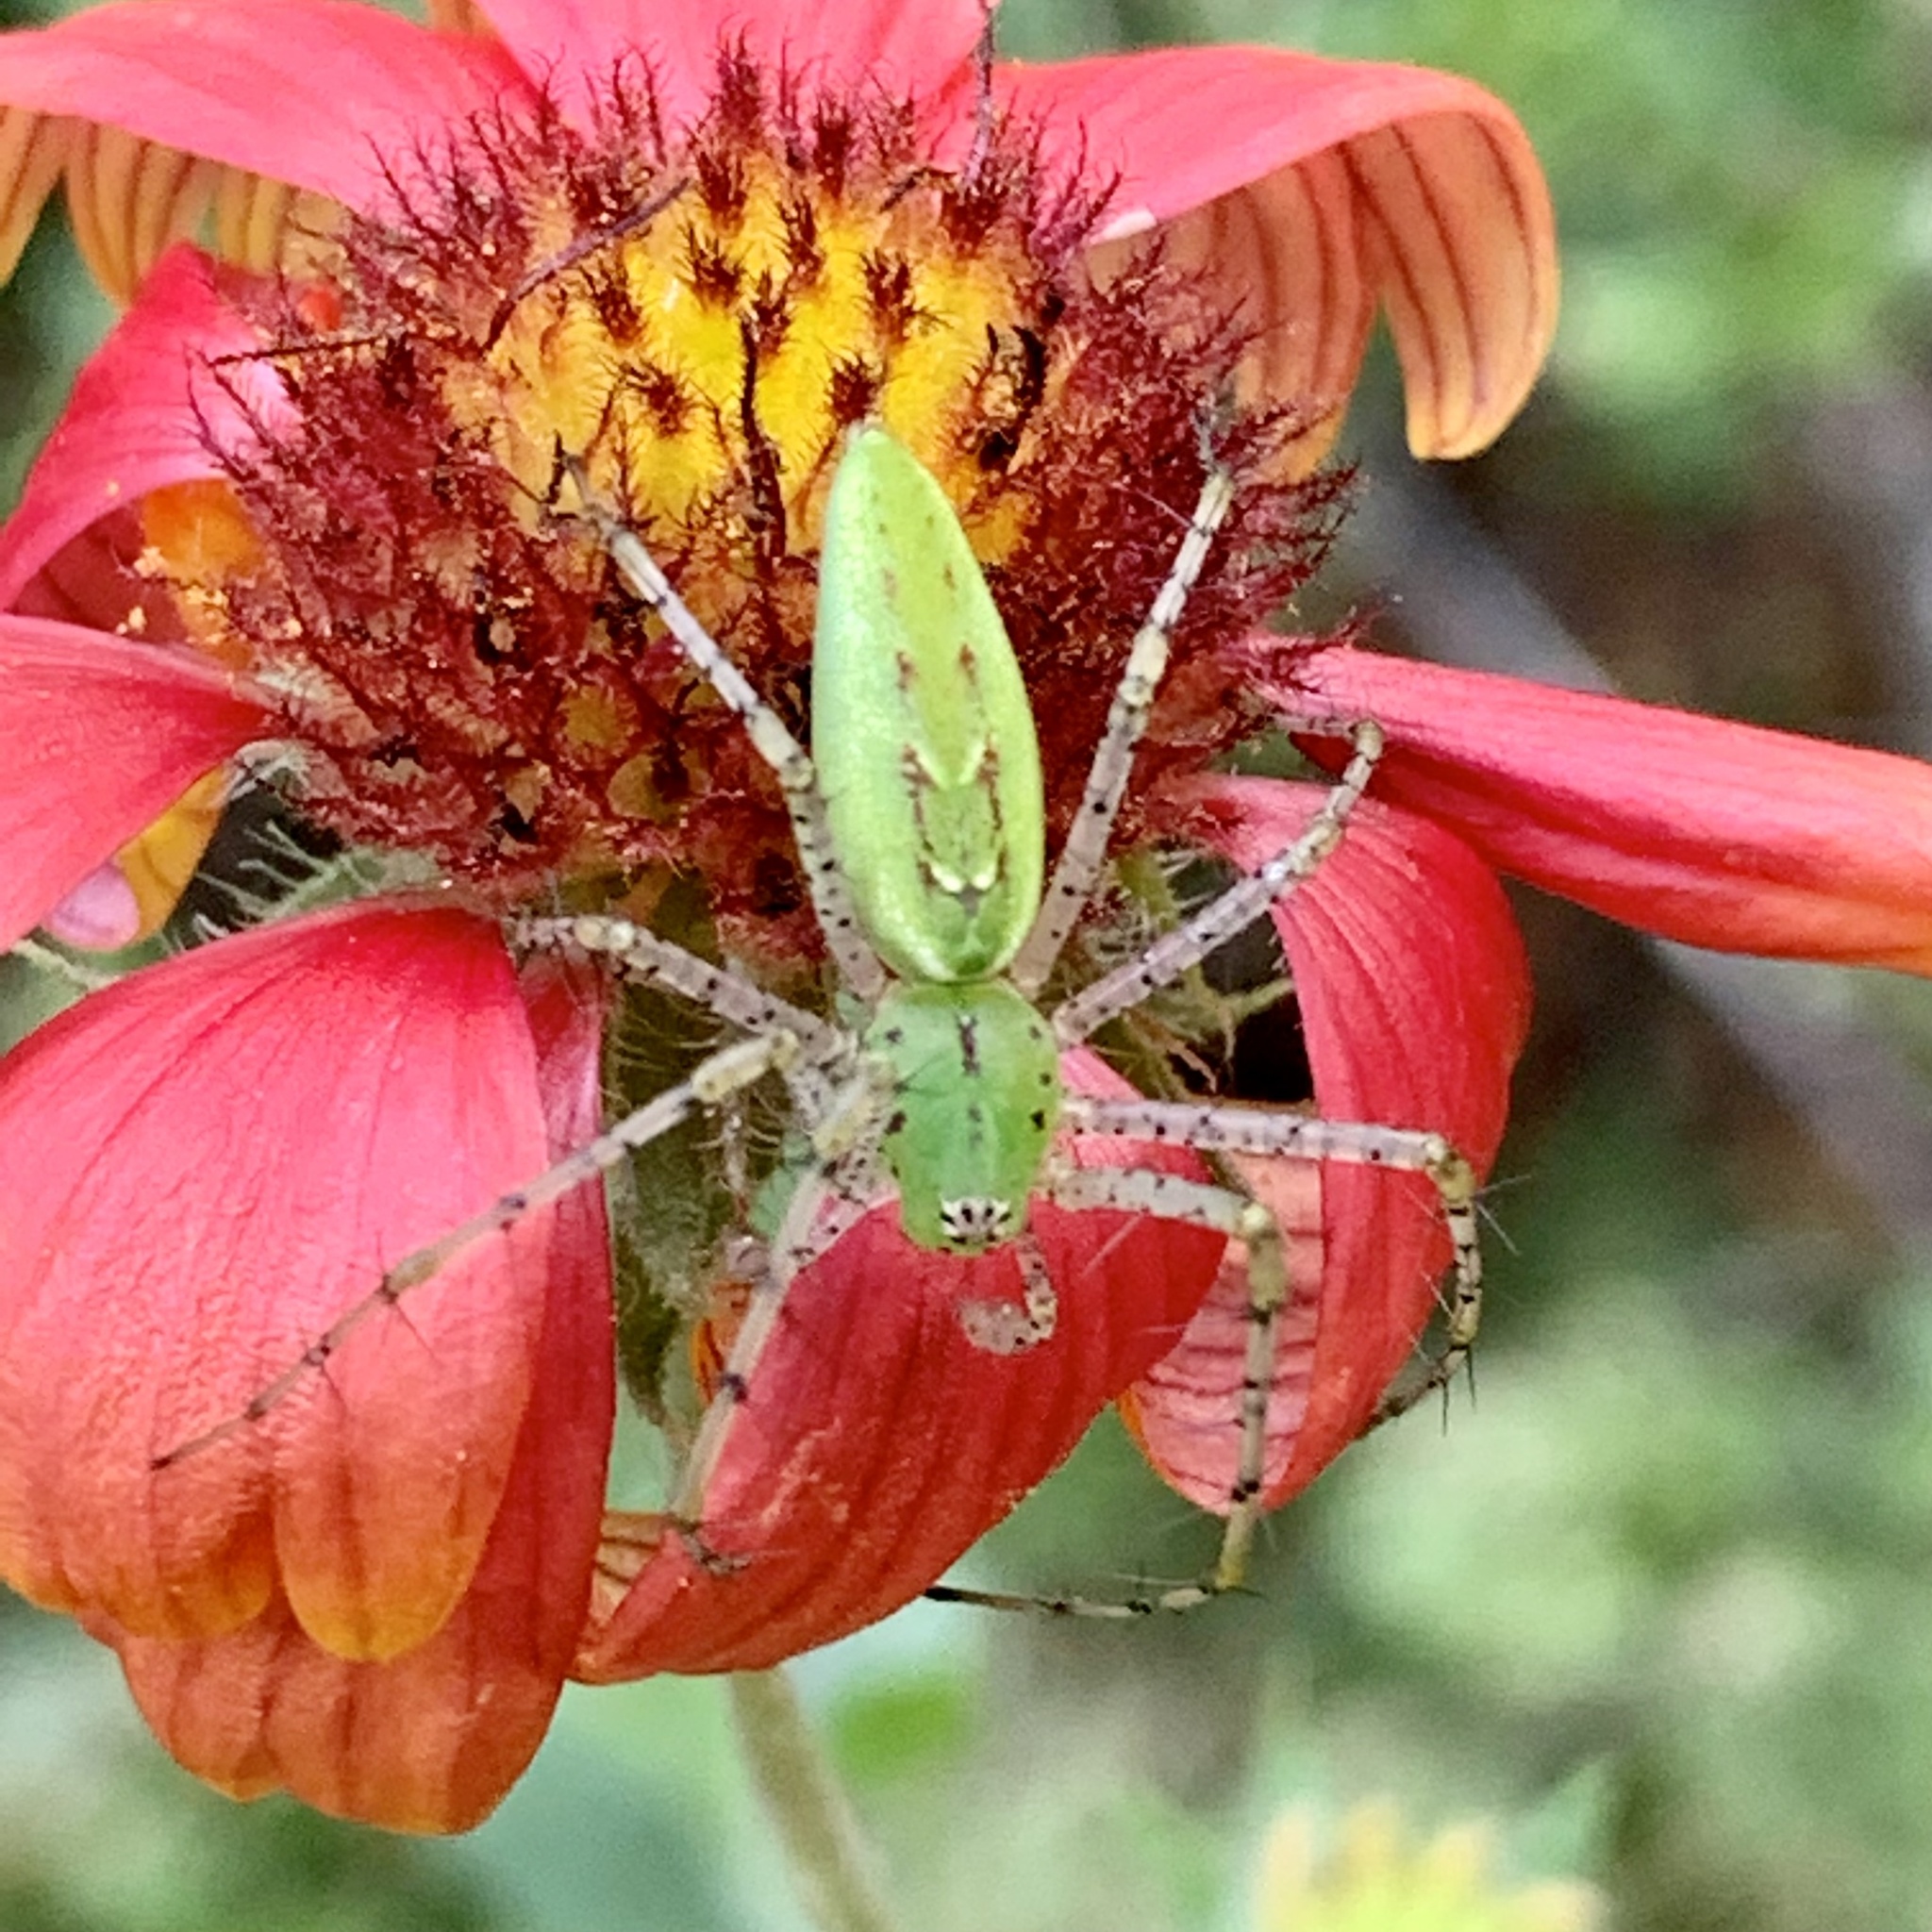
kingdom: Animalia
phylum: Arthropoda
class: Arachnida
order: Araneae
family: Oxyopidae
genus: Peucetia
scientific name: Peucetia viridans
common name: Lynx spiders
